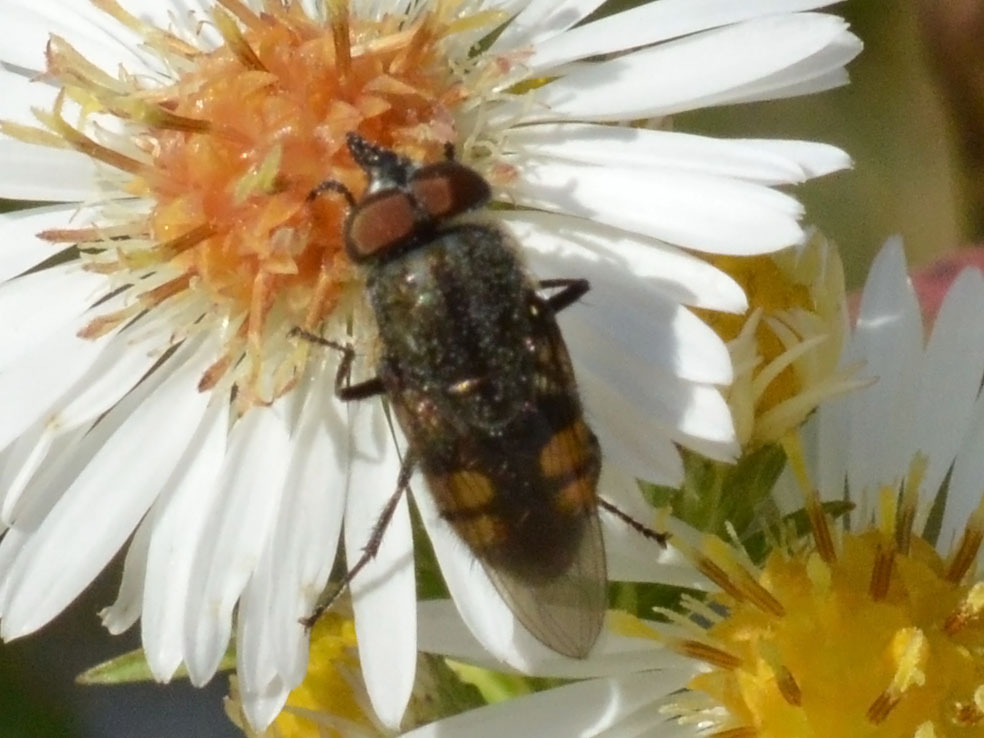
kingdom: Animalia
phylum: Arthropoda
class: Insecta
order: Diptera
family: Calliphoridae
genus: Stomorhina
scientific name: Stomorhina lunata
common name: Locust blowfly
